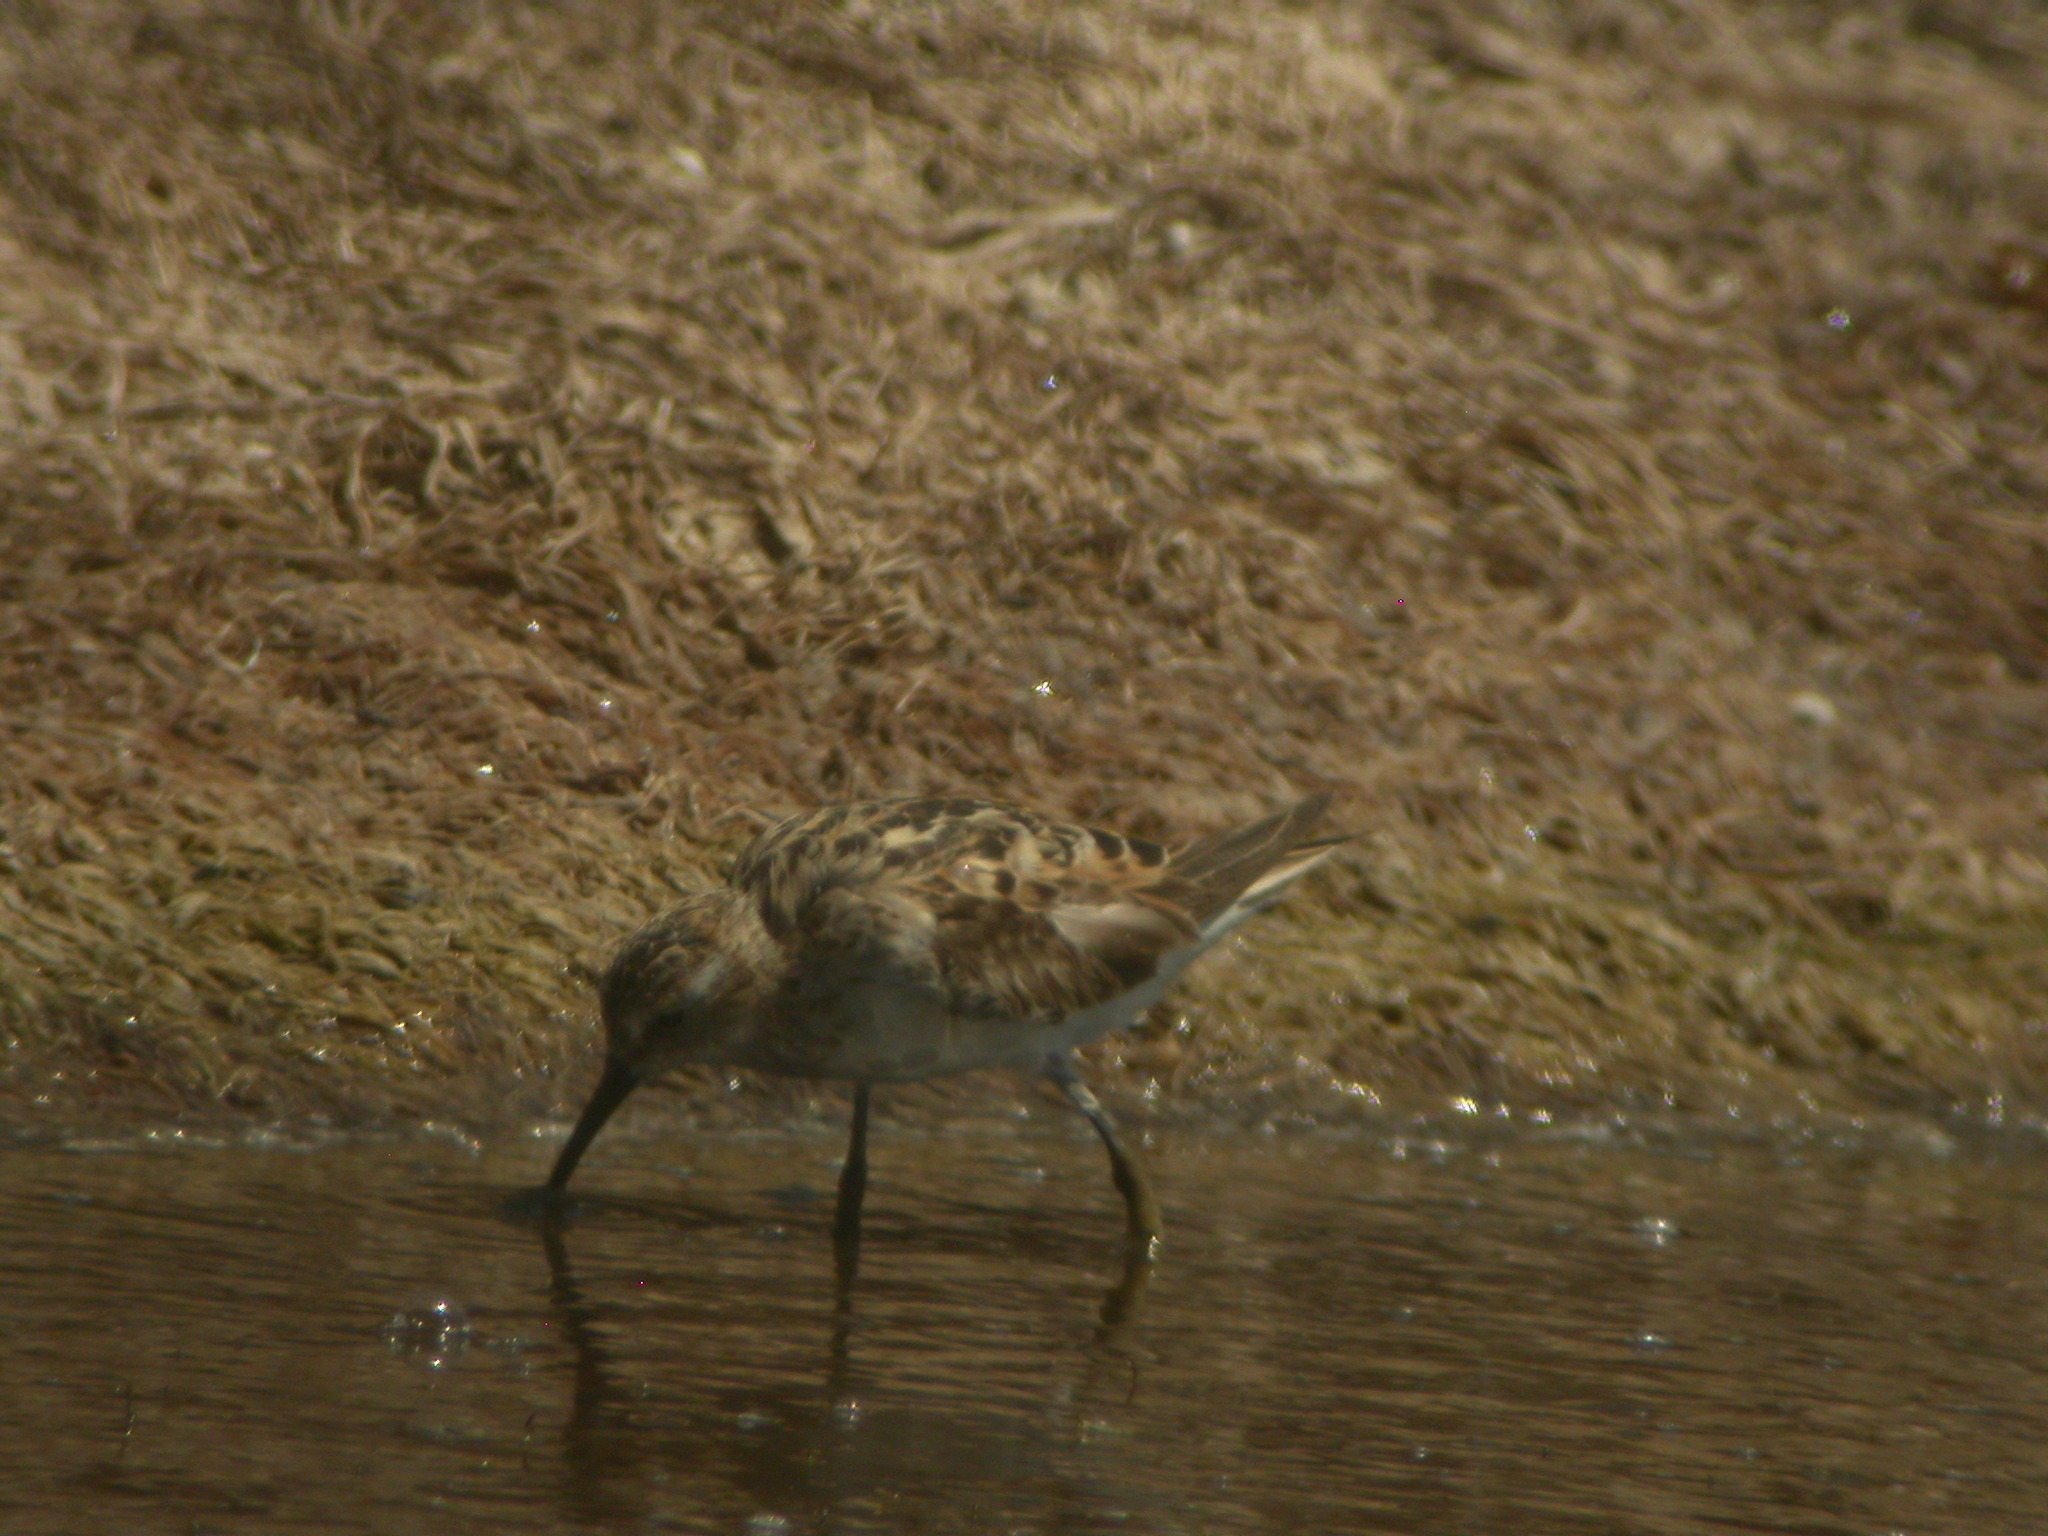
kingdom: Animalia
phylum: Chordata
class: Aves
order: Charadriiformes
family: Scolopacidae
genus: Calidris
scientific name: Calidris alpina
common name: Dunlin
